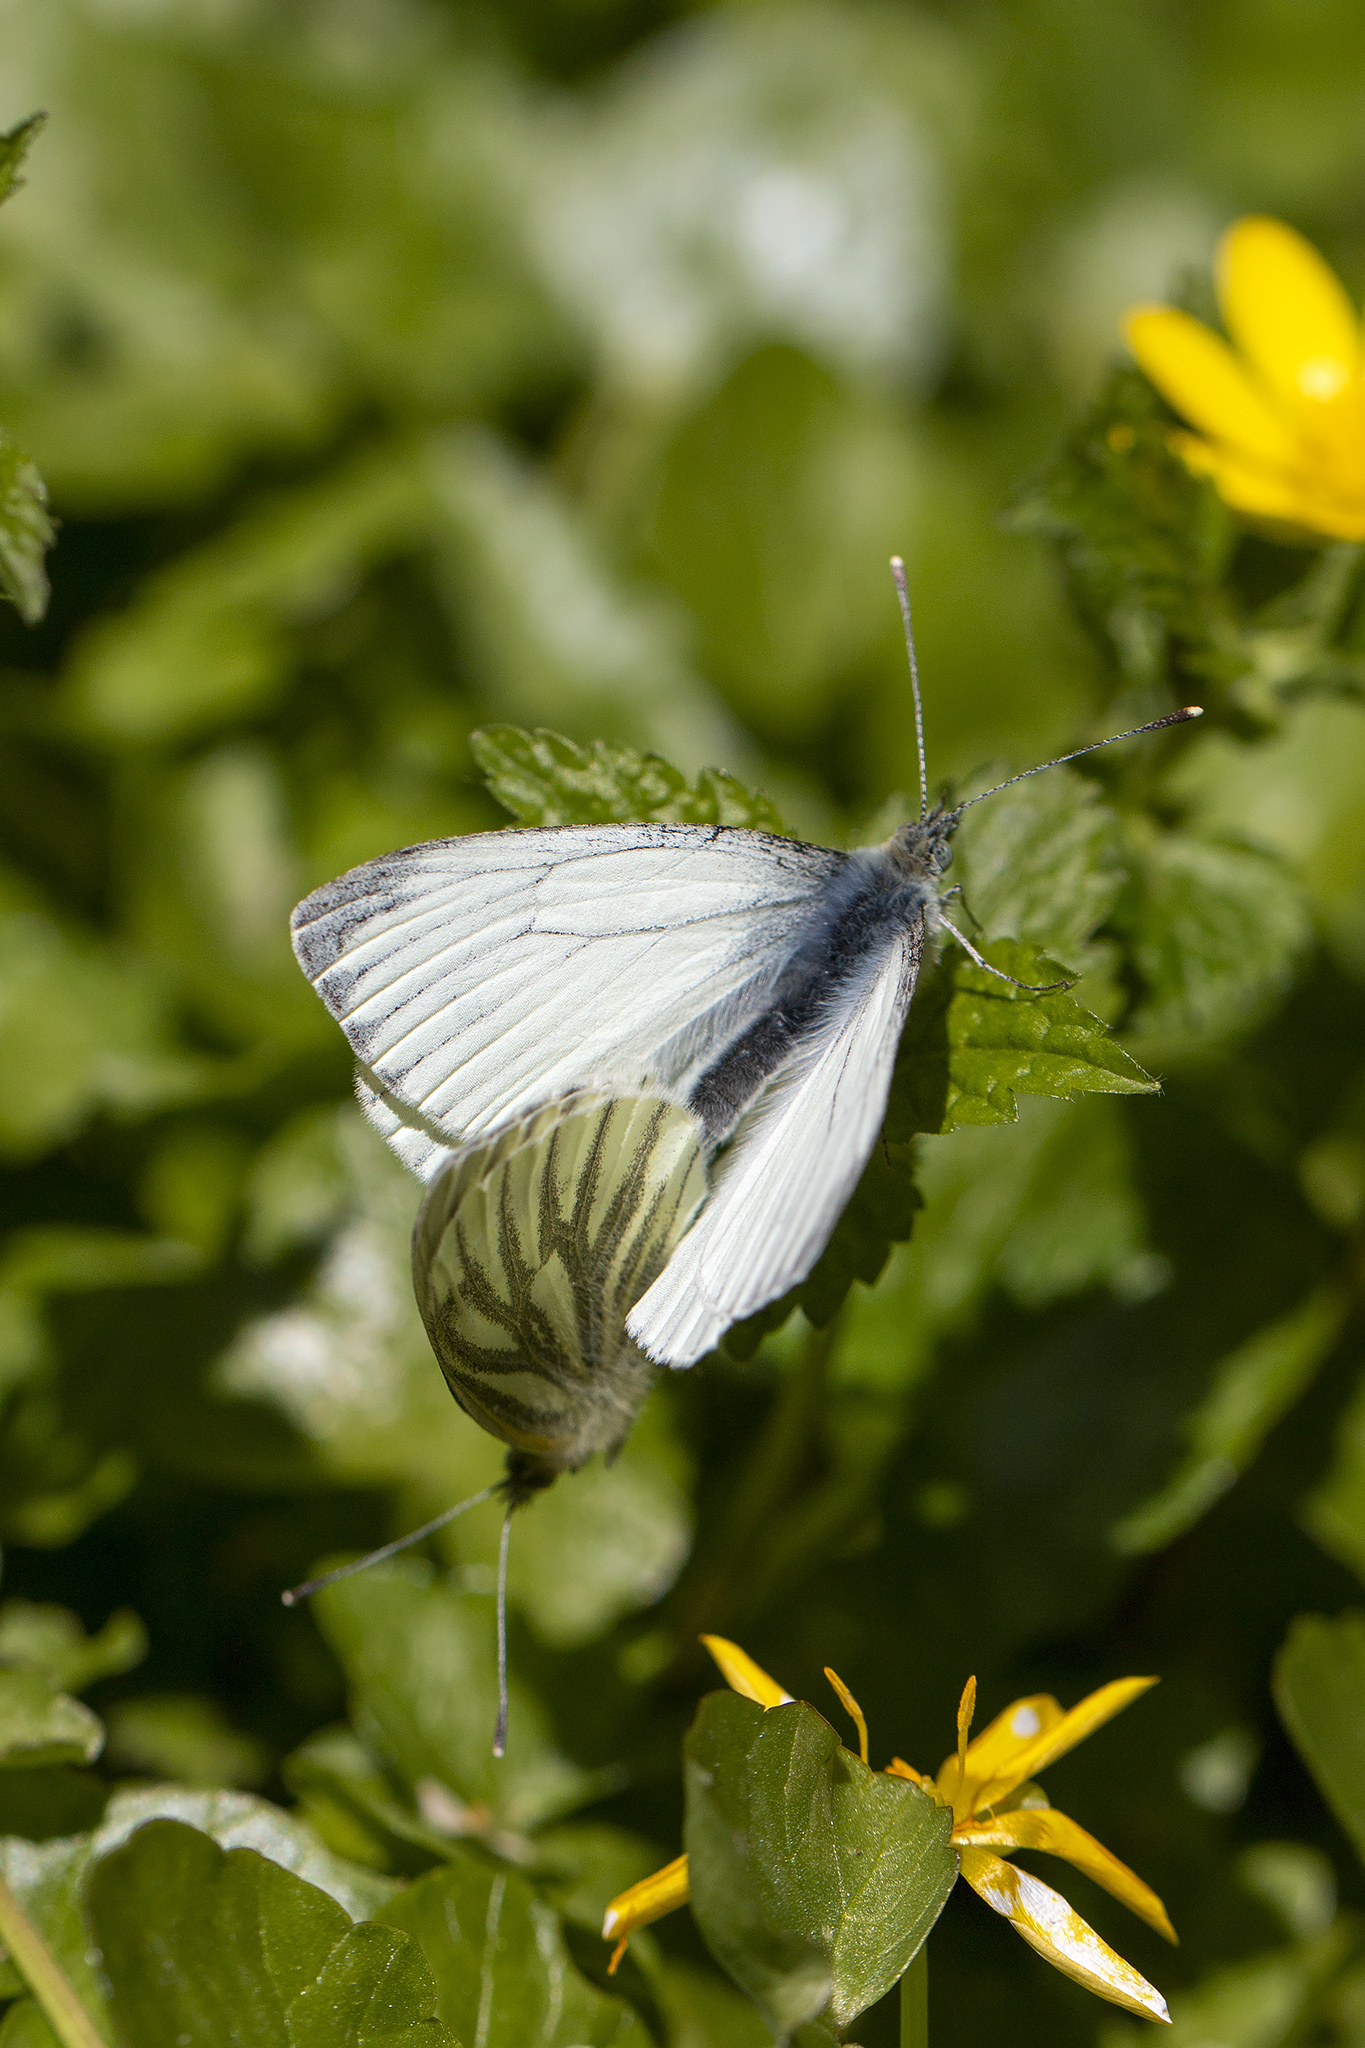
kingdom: Animalia
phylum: Arthropoda
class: Insecta
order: Lepidoptera
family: Pieridae
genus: Pieris
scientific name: Pieris napi
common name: Green-veined white
